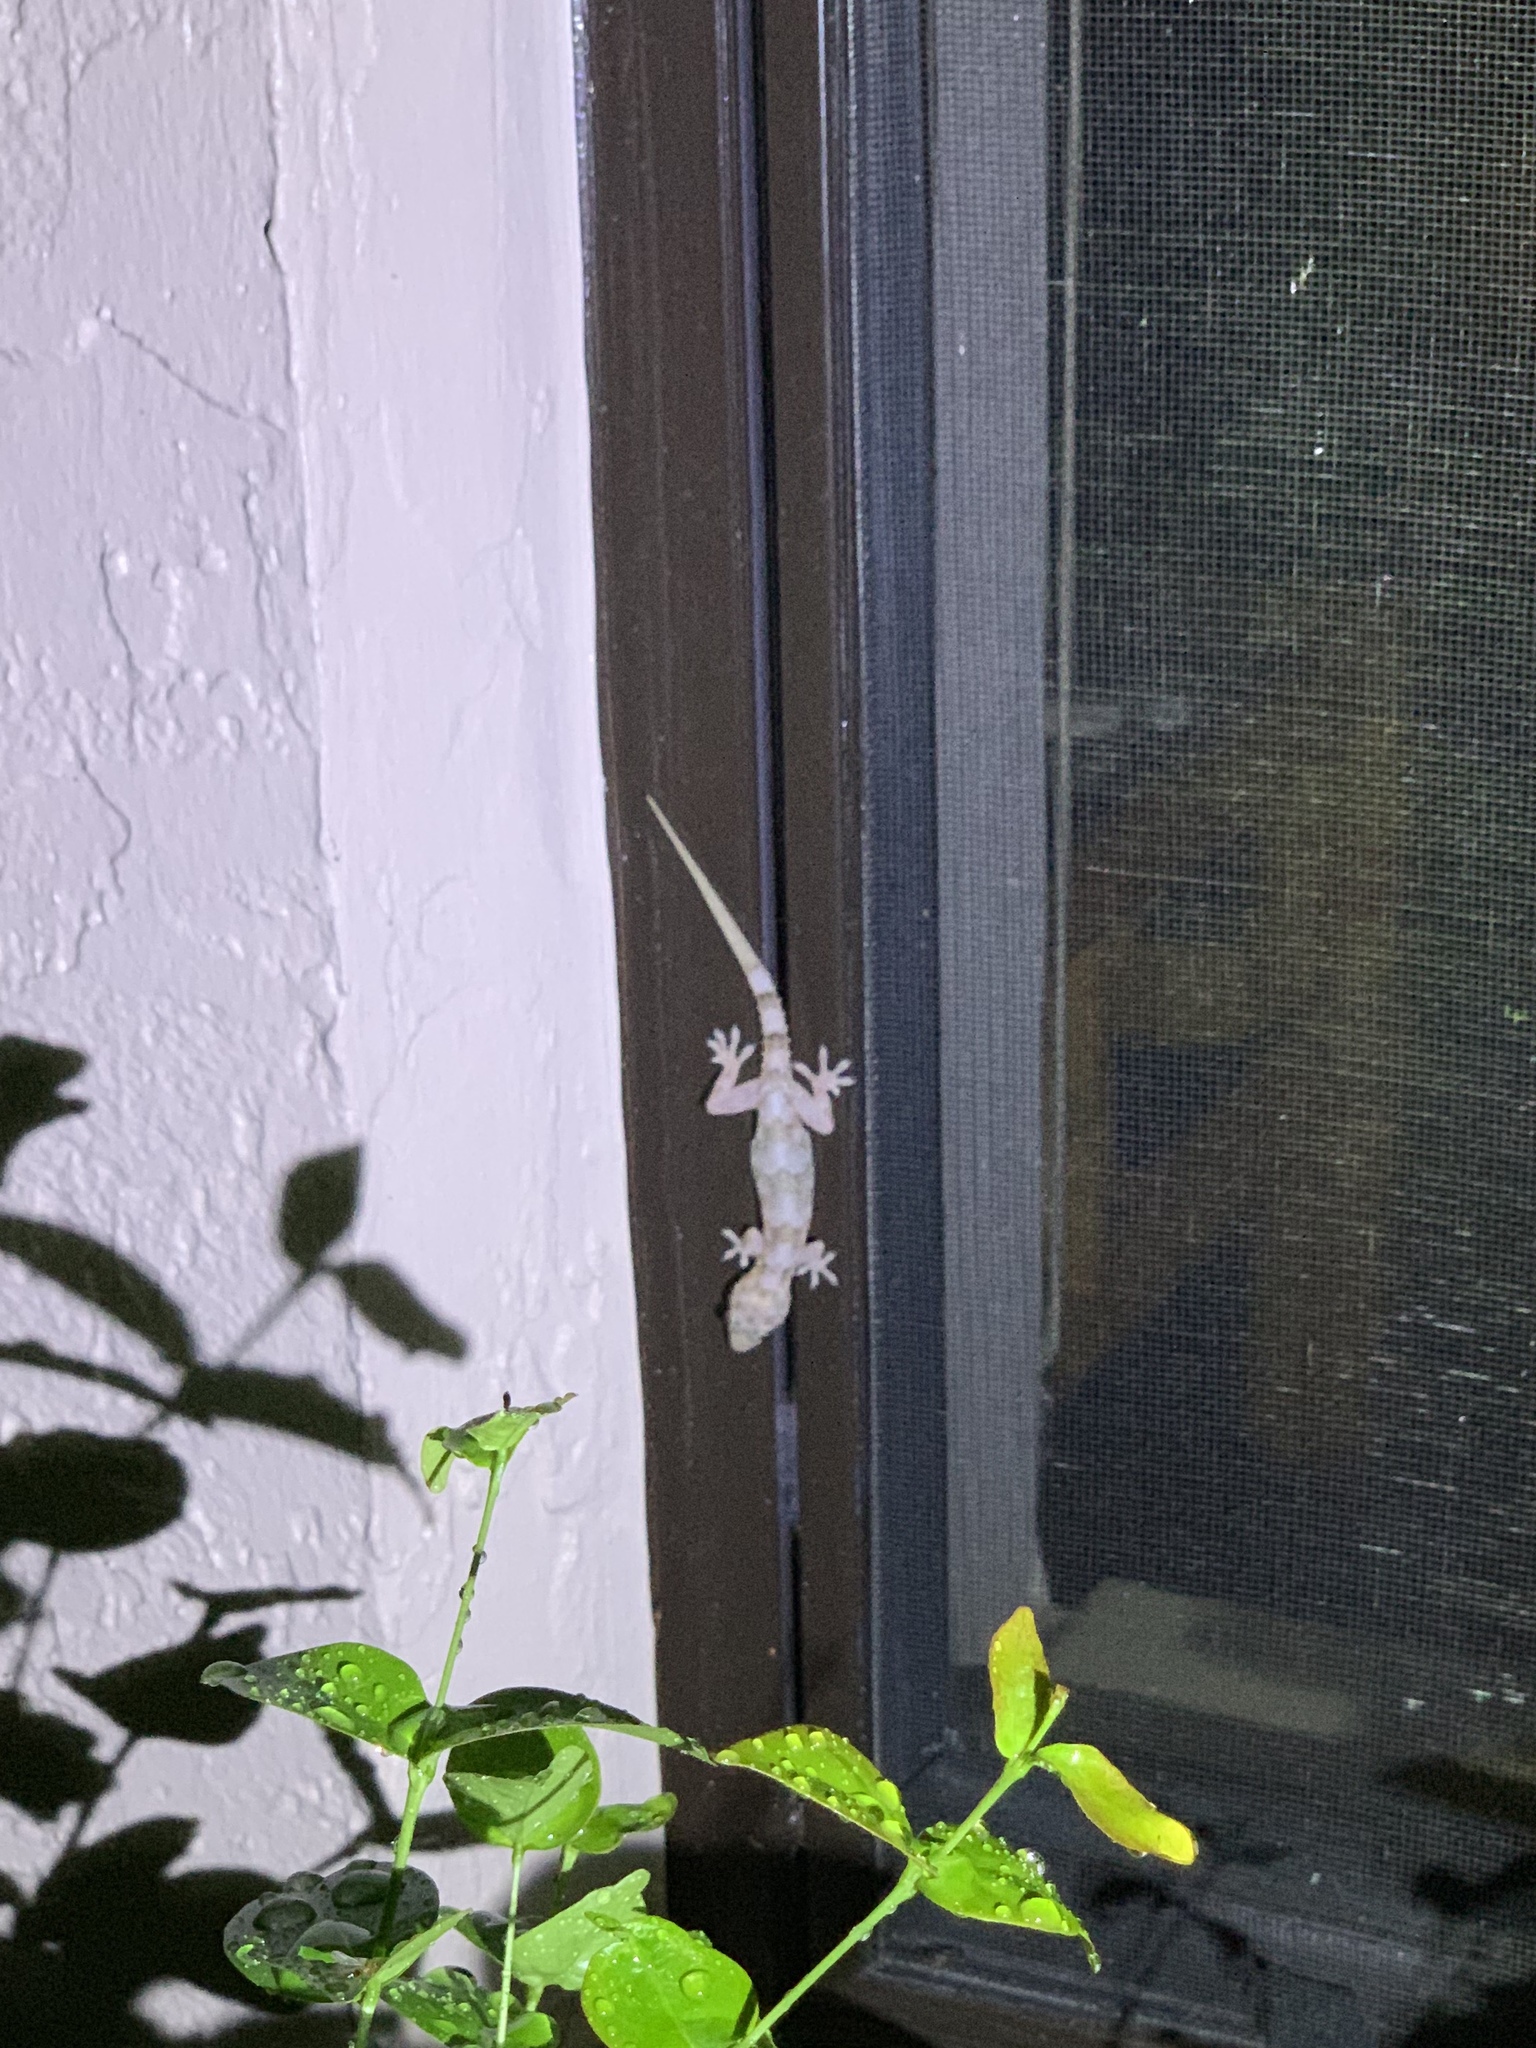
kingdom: Animalia
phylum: Chordata
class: Squamata
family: Gekkonidae
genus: Hemidactylus
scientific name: Hemidactylus mabouia
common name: House gecko
